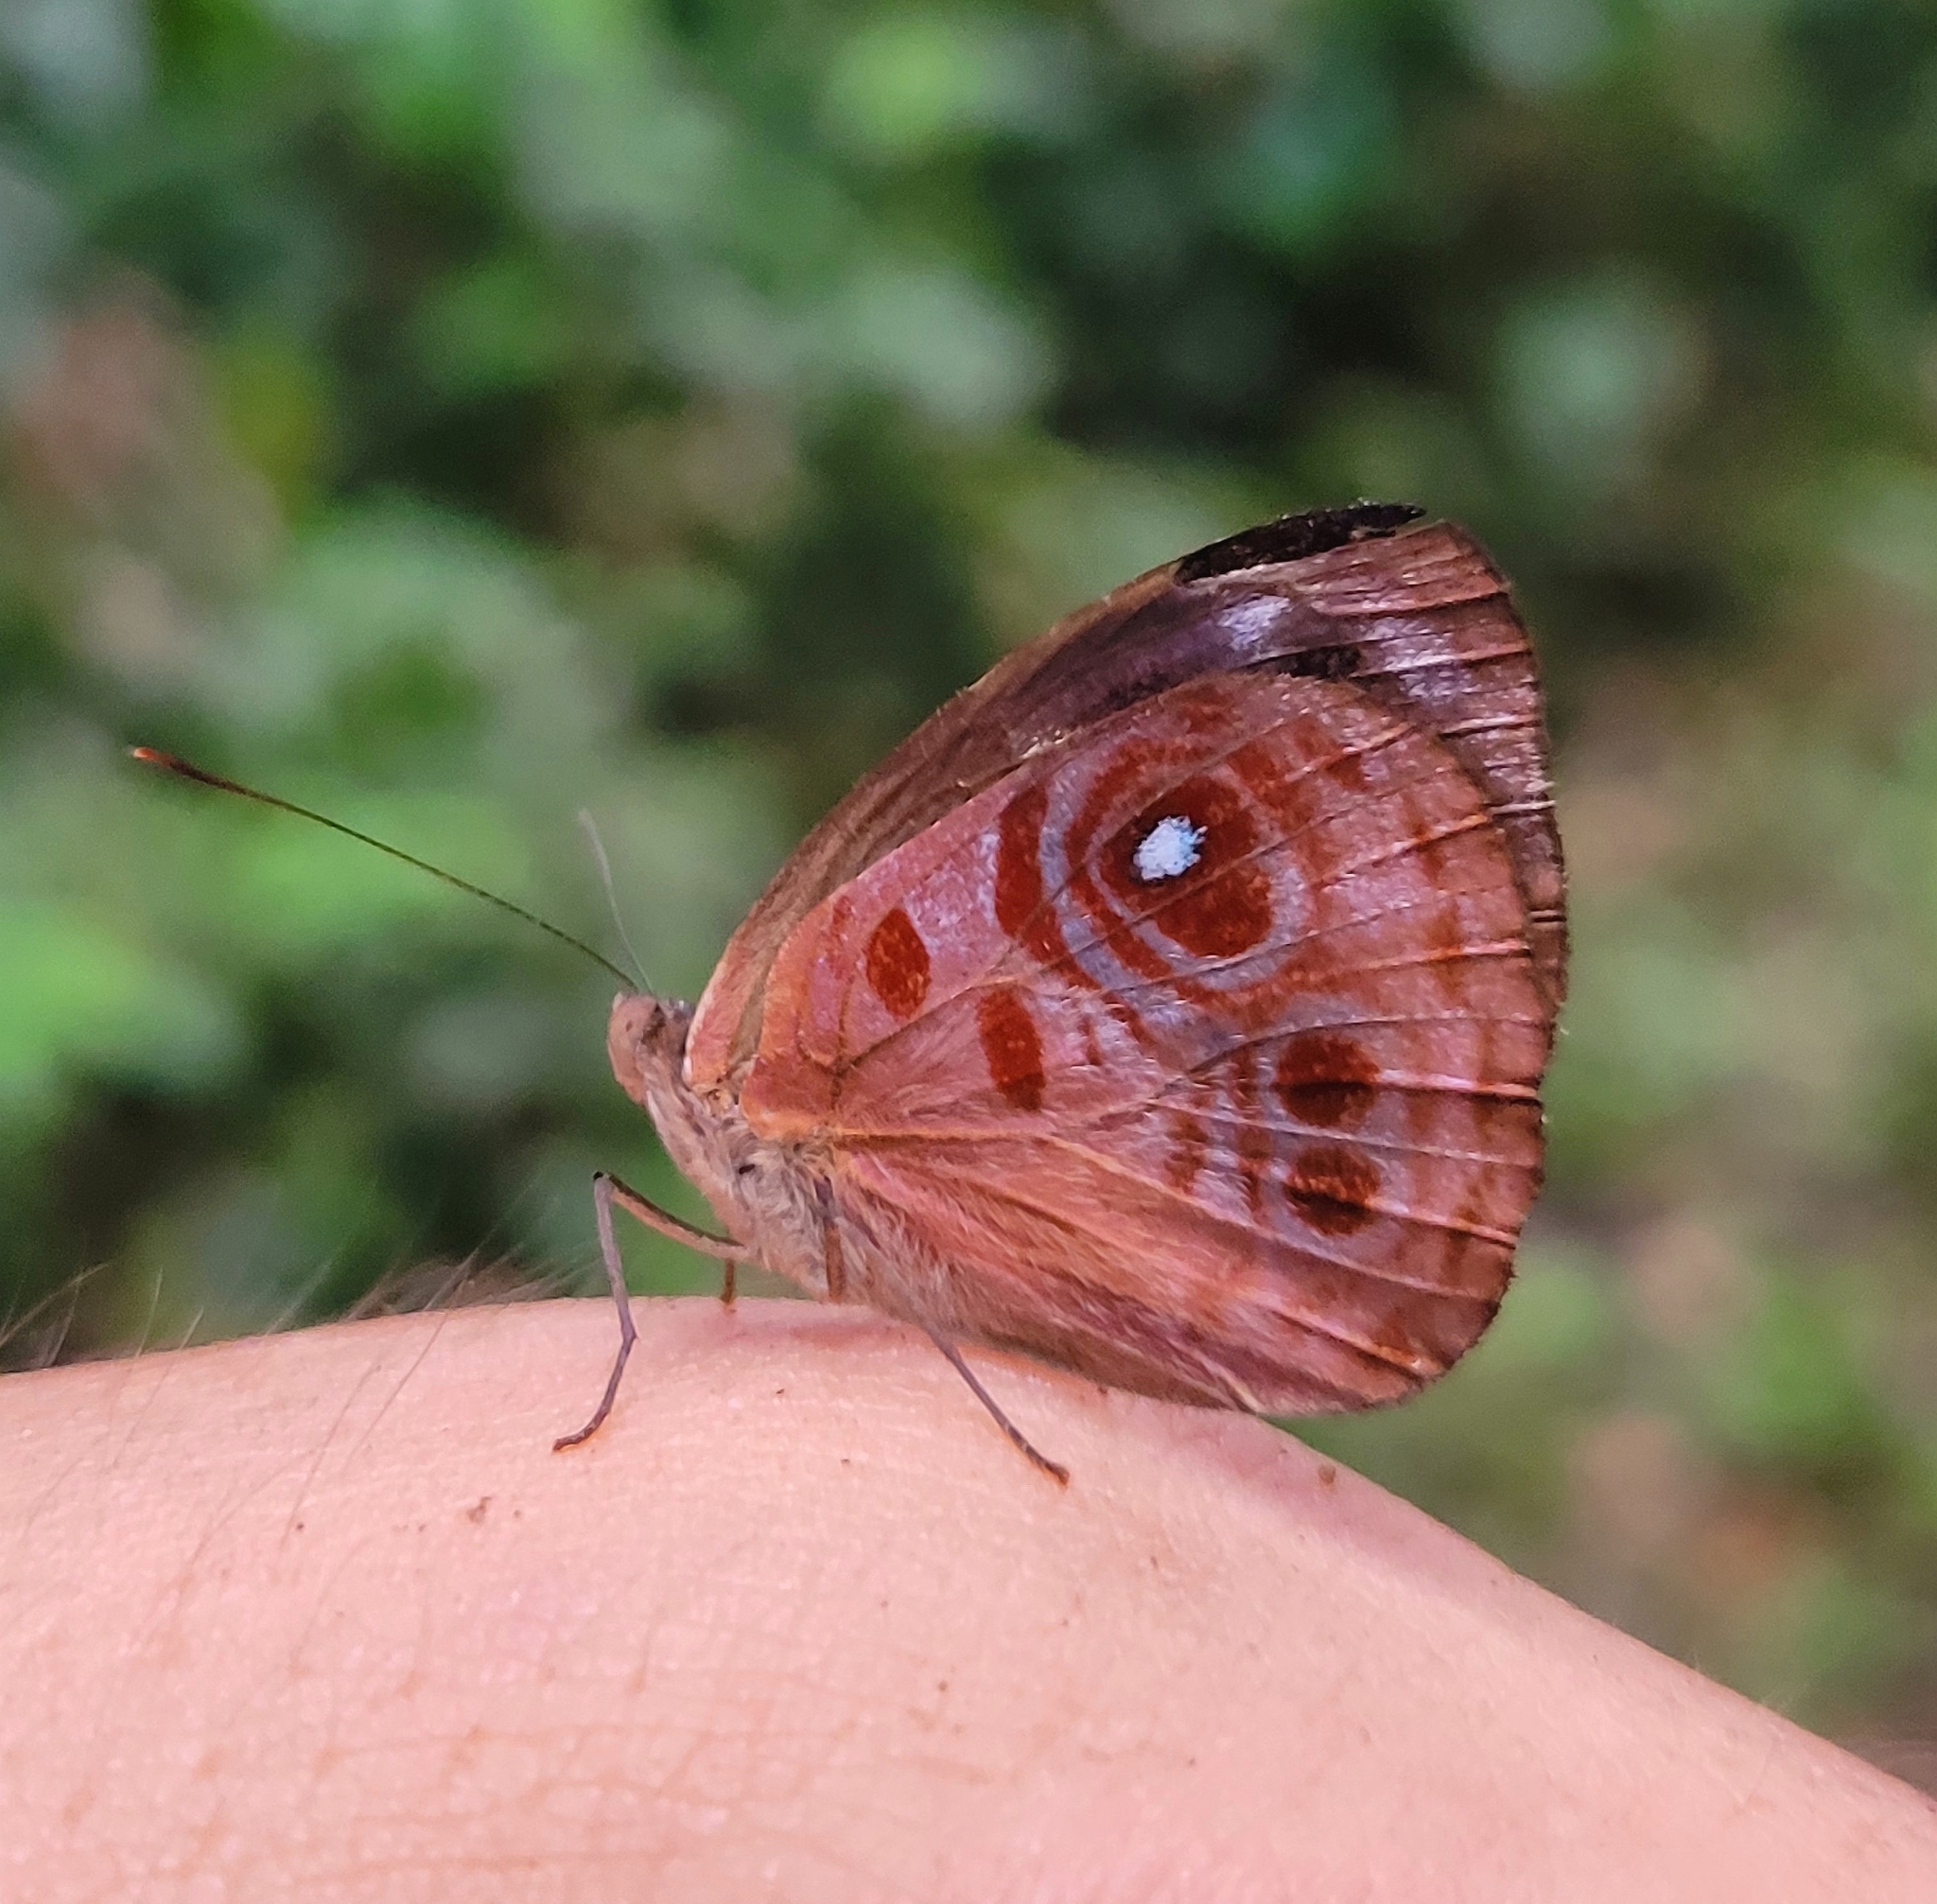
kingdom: Animalia
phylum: Arthropoda
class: Insecta
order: Lepidoptera
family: Nymphalidae
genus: Eunica
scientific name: Eunica amelia
